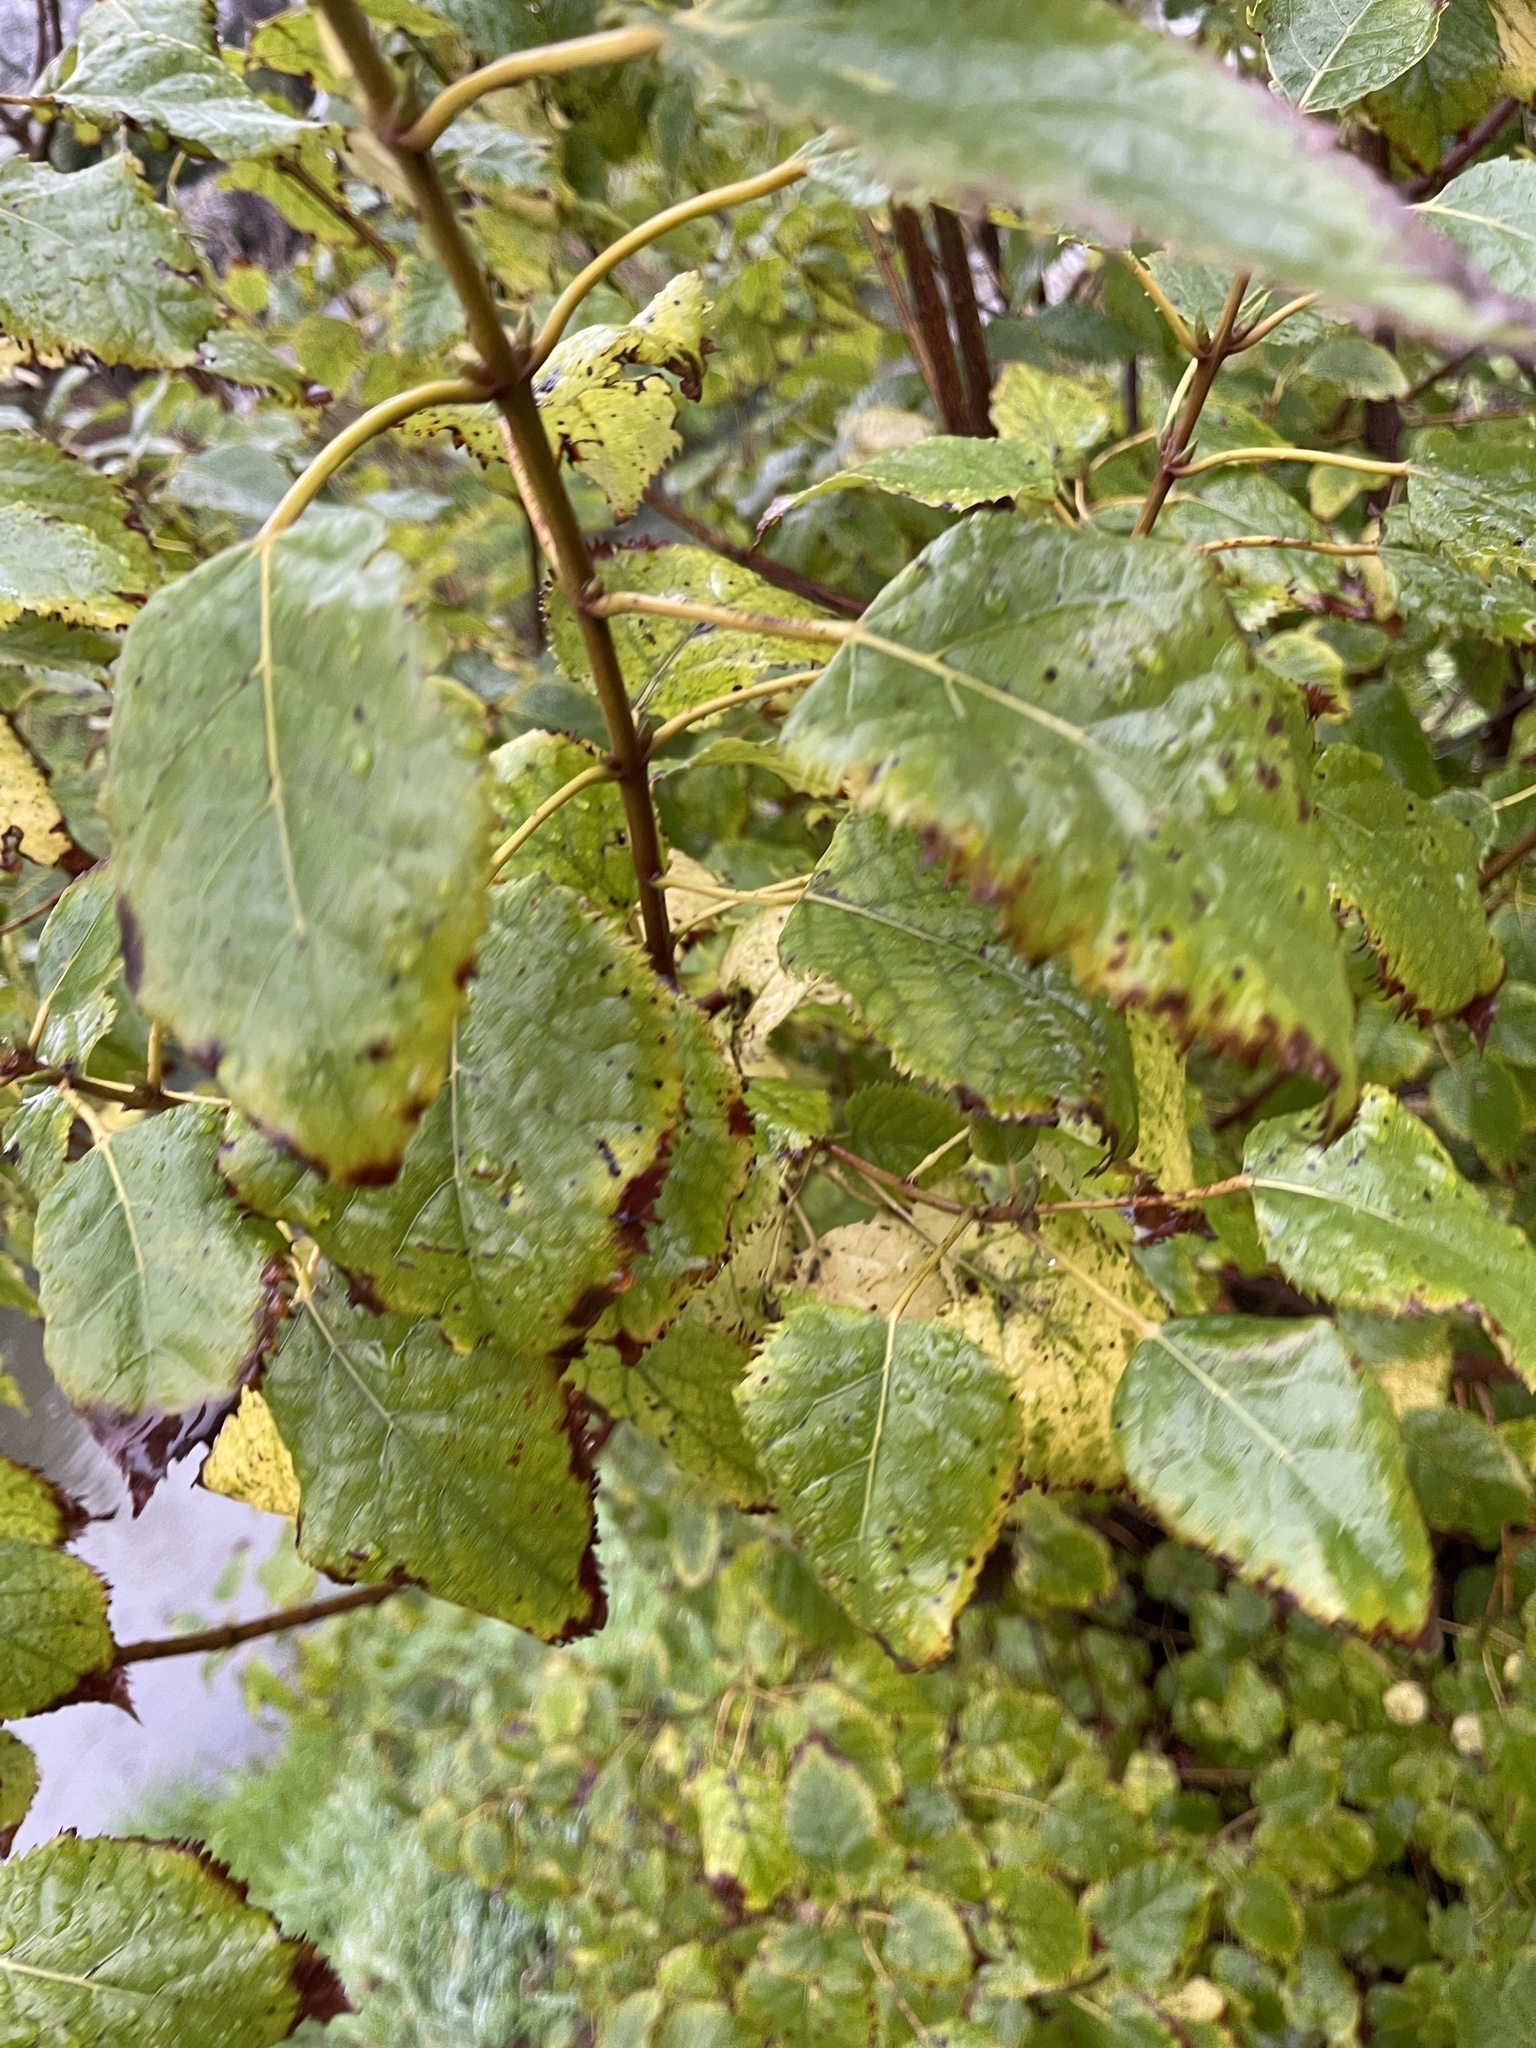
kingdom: Plantae
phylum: Tracheophyta
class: Magnoliopsida
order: Oxalidales
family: Elaeocarpaceae
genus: Aristotelia
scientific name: Aristotelia serrata
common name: New zealand wineberry
